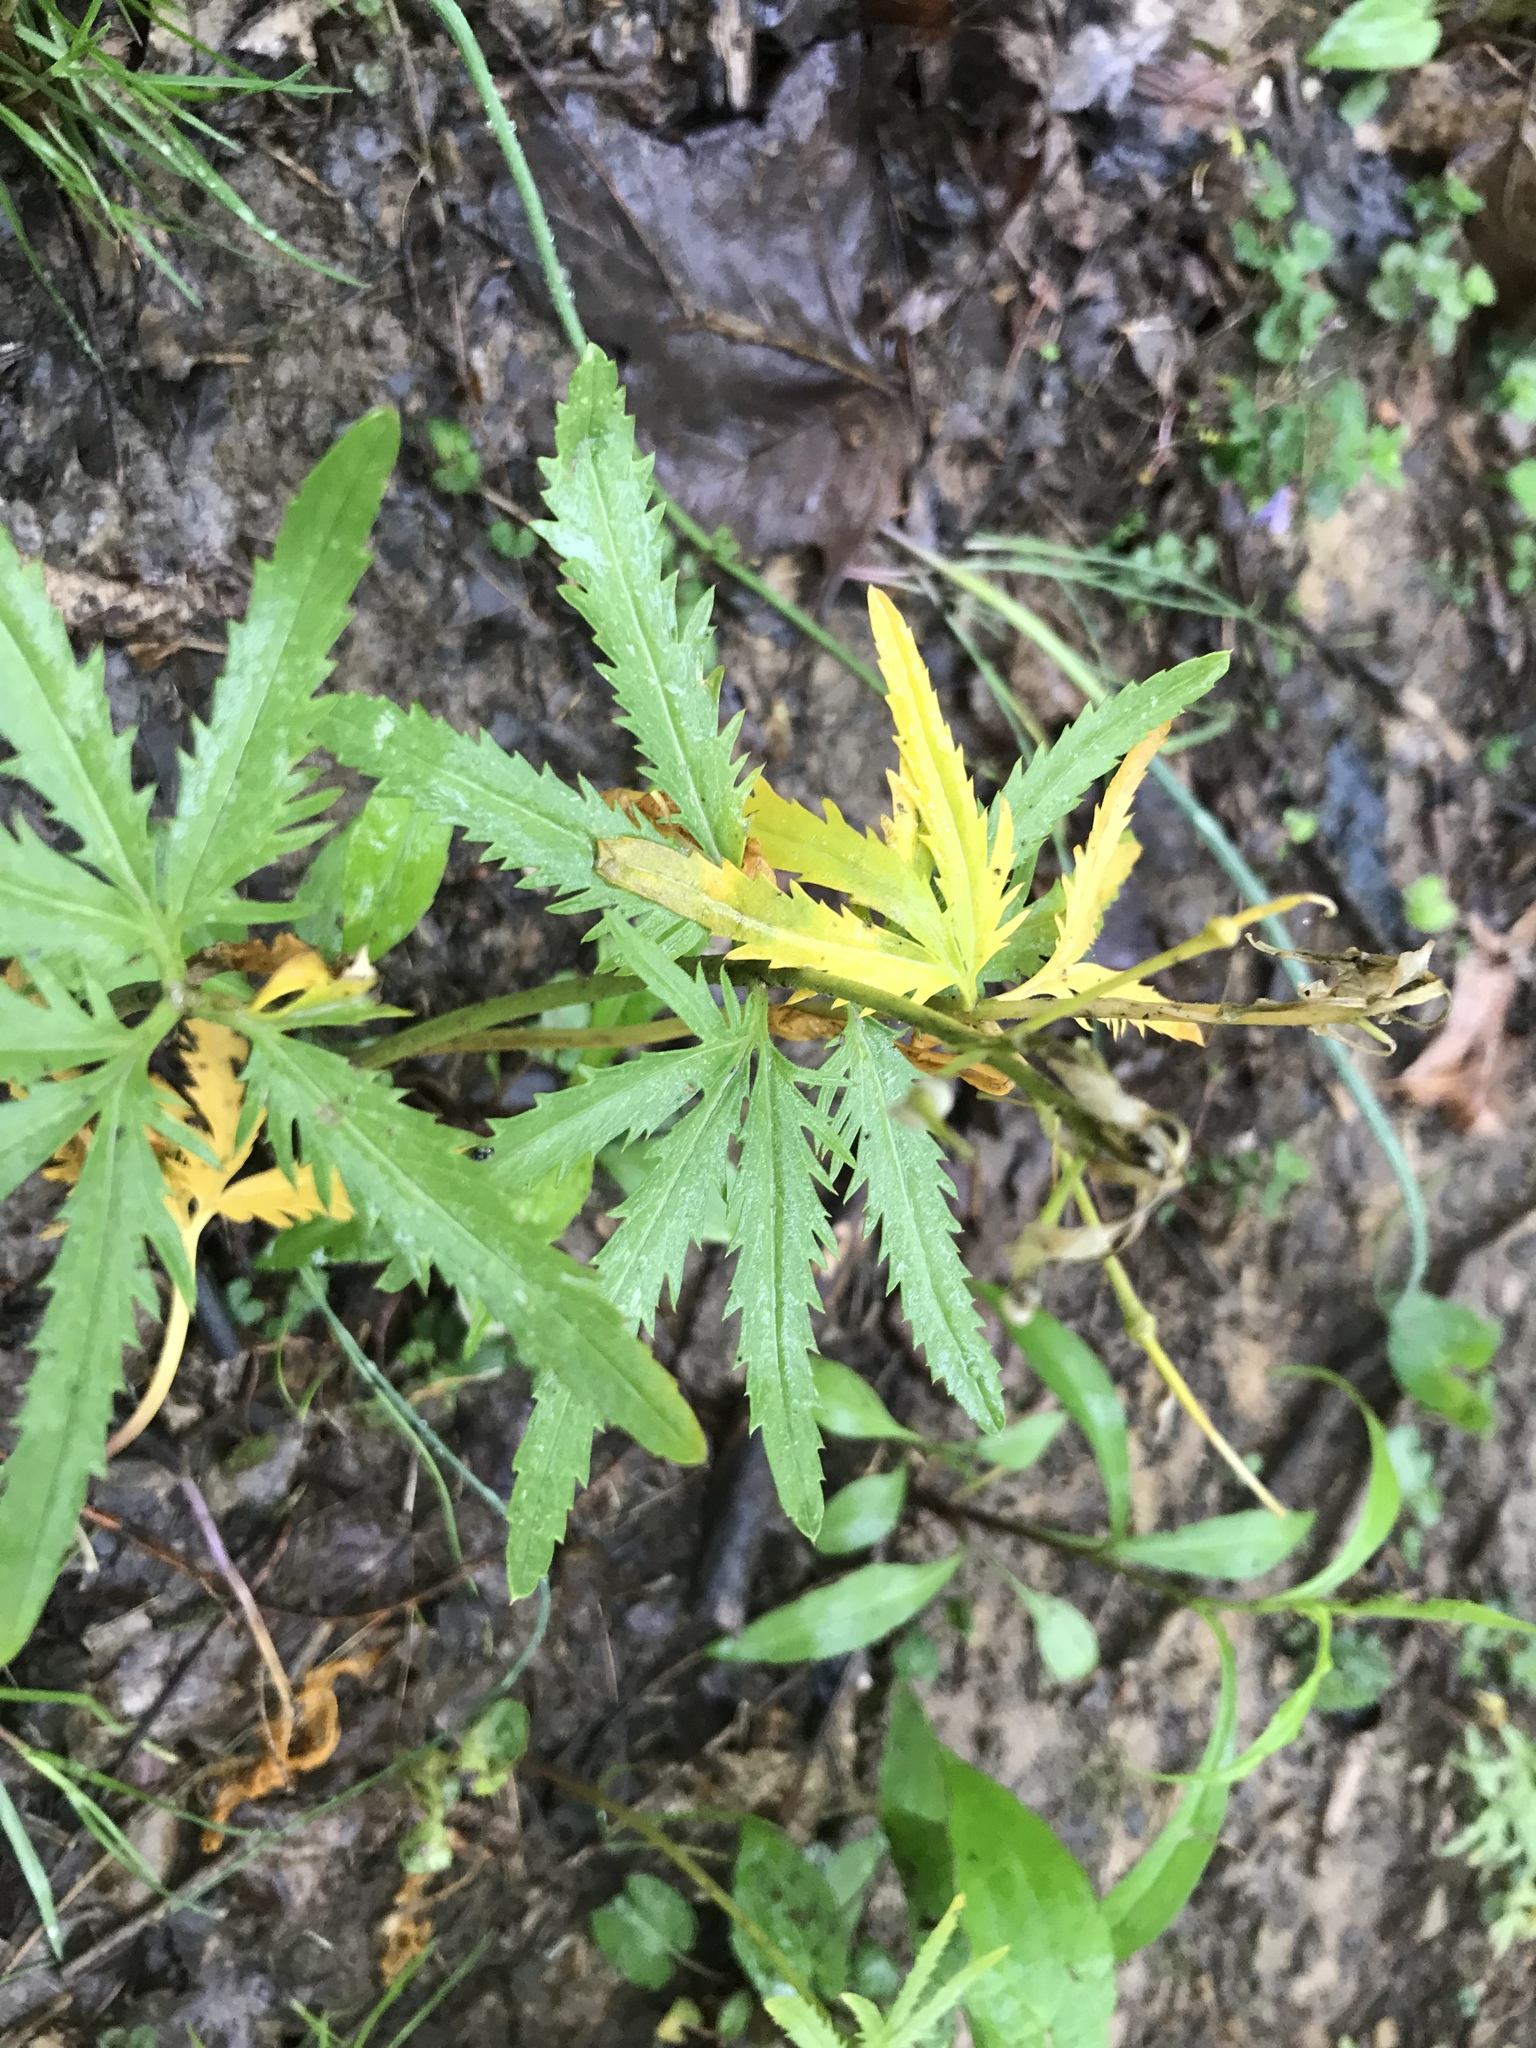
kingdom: Plantae
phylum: Tracheophyta
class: Magnoliopsida
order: Brassicales
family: Brassicaceae
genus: Cardamine
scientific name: Cardamine concatenata
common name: Cut-leaf toothcup
